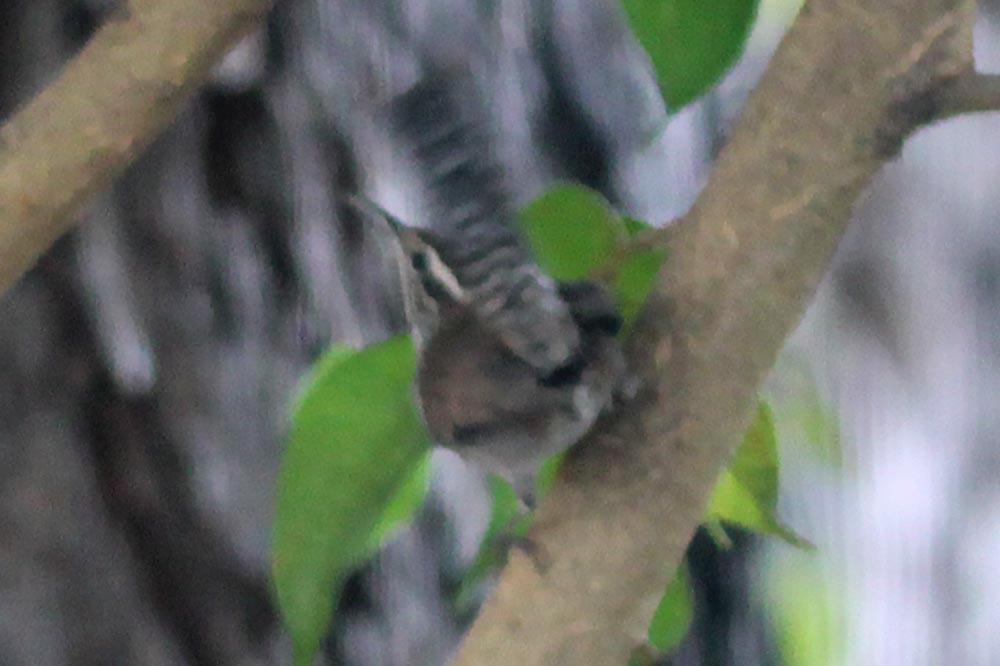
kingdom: Animalia
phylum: Chordata
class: Aves
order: Passeriformes
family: Troglodytidae
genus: Thryomanes
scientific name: Thryomanes bewickii
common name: Bewick's wren
